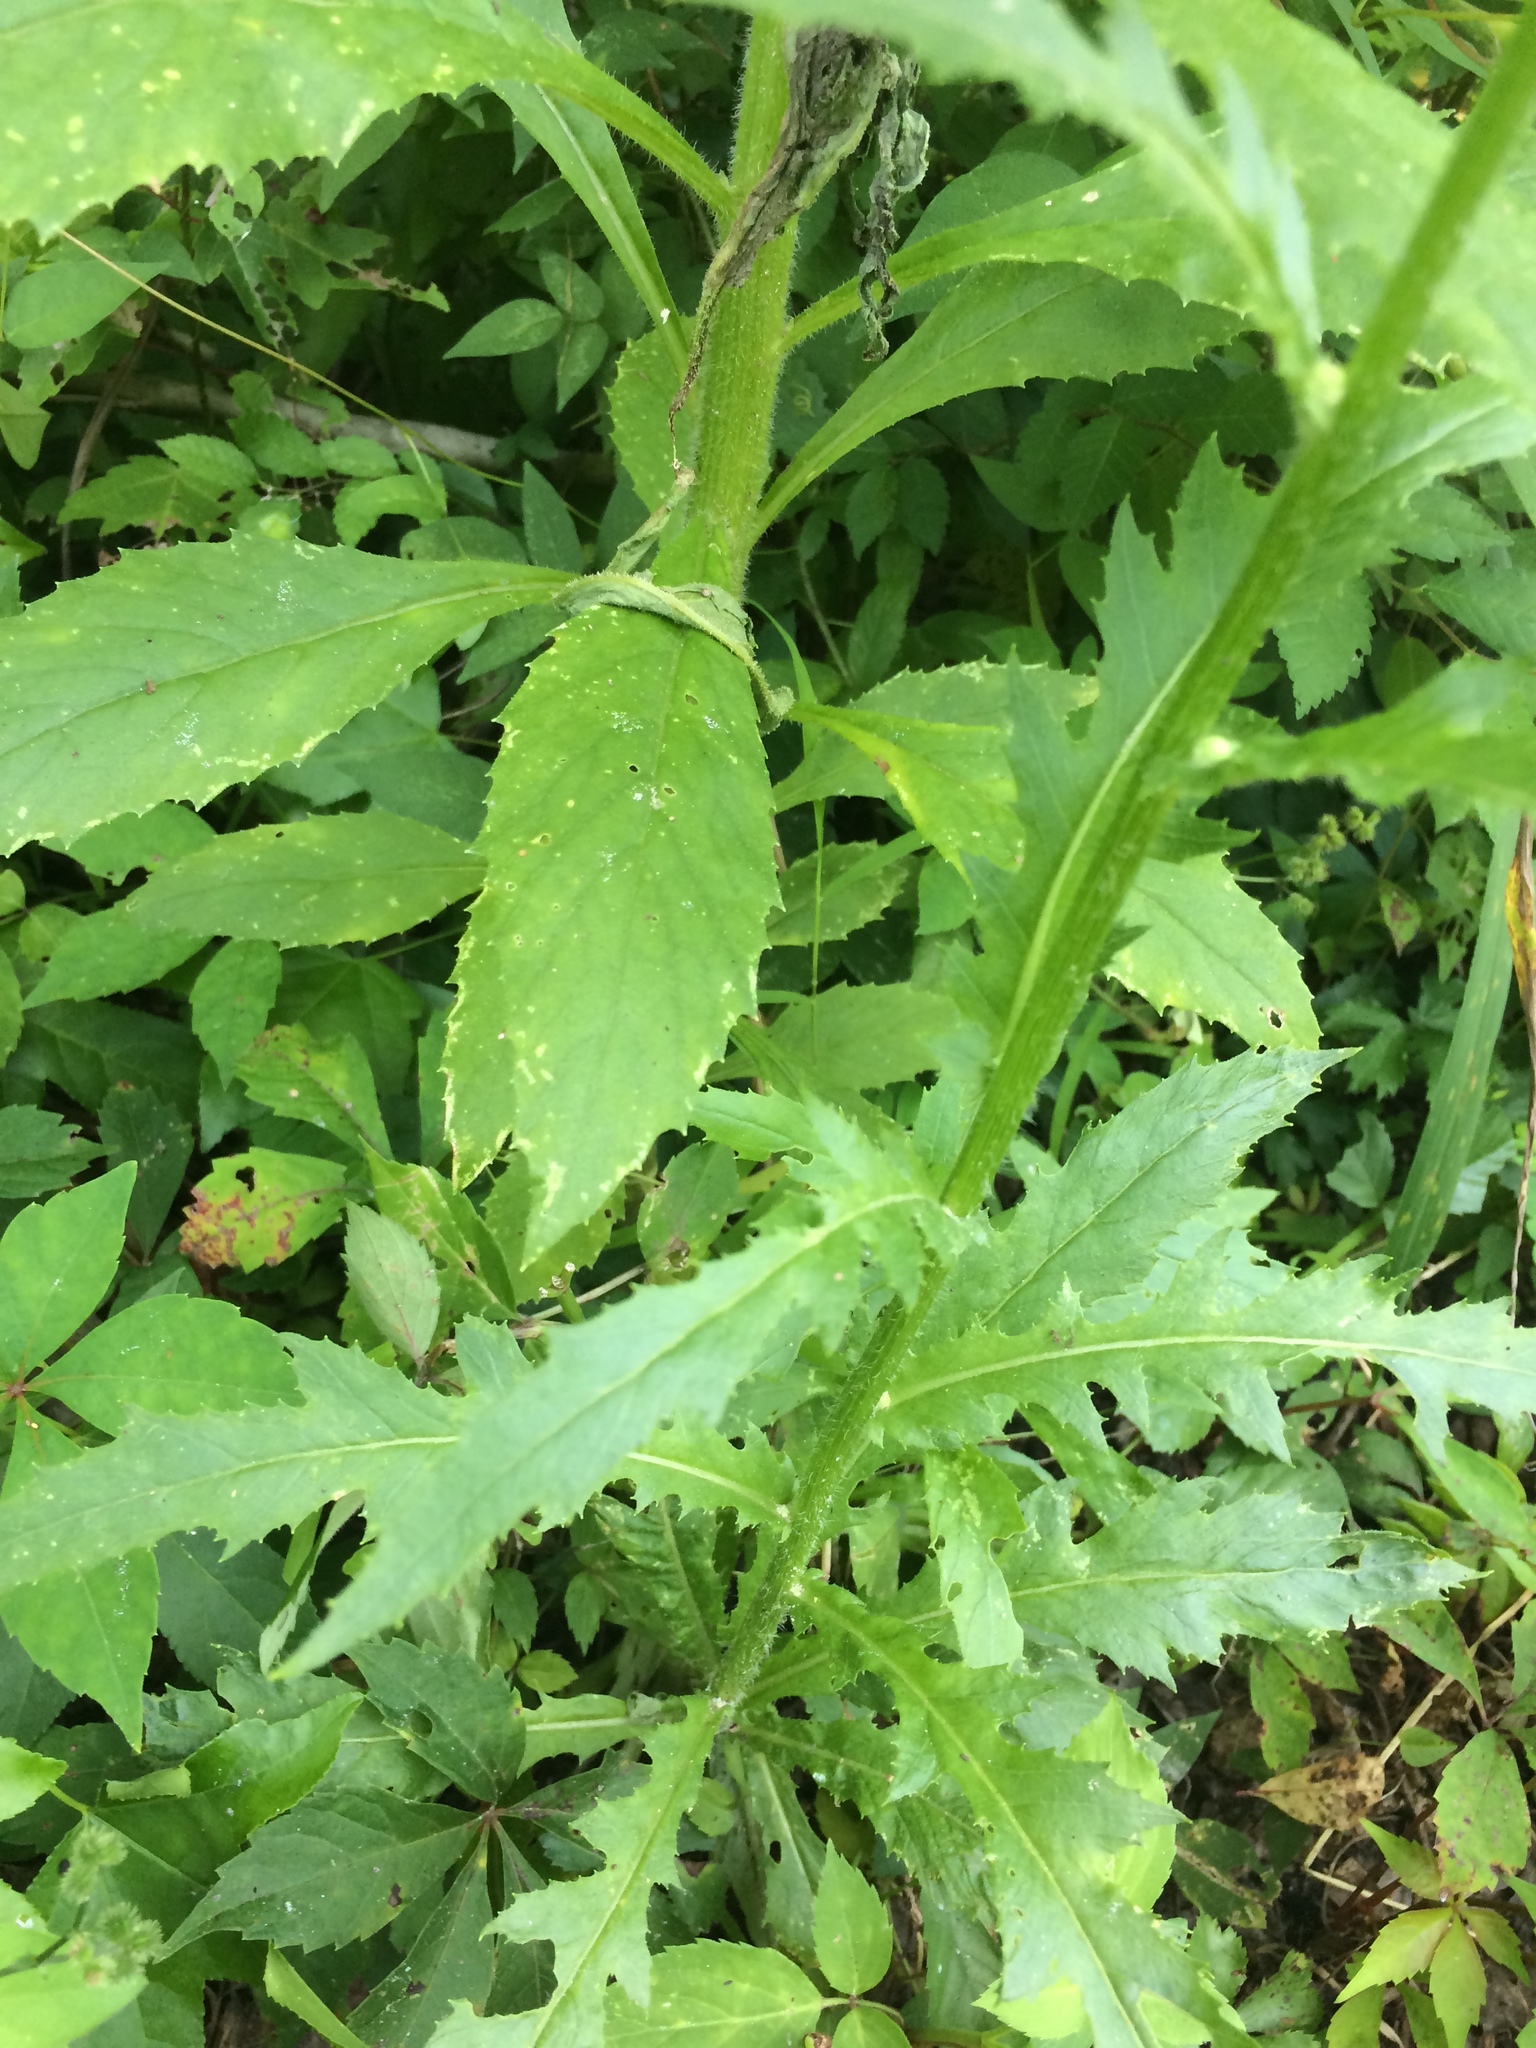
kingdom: Plantae
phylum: Tracheophyta
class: Magnoliopsida
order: Asterales
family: Asteraceae
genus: Erechtites
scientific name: Erechtites hieraciifolius
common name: American burnweed
